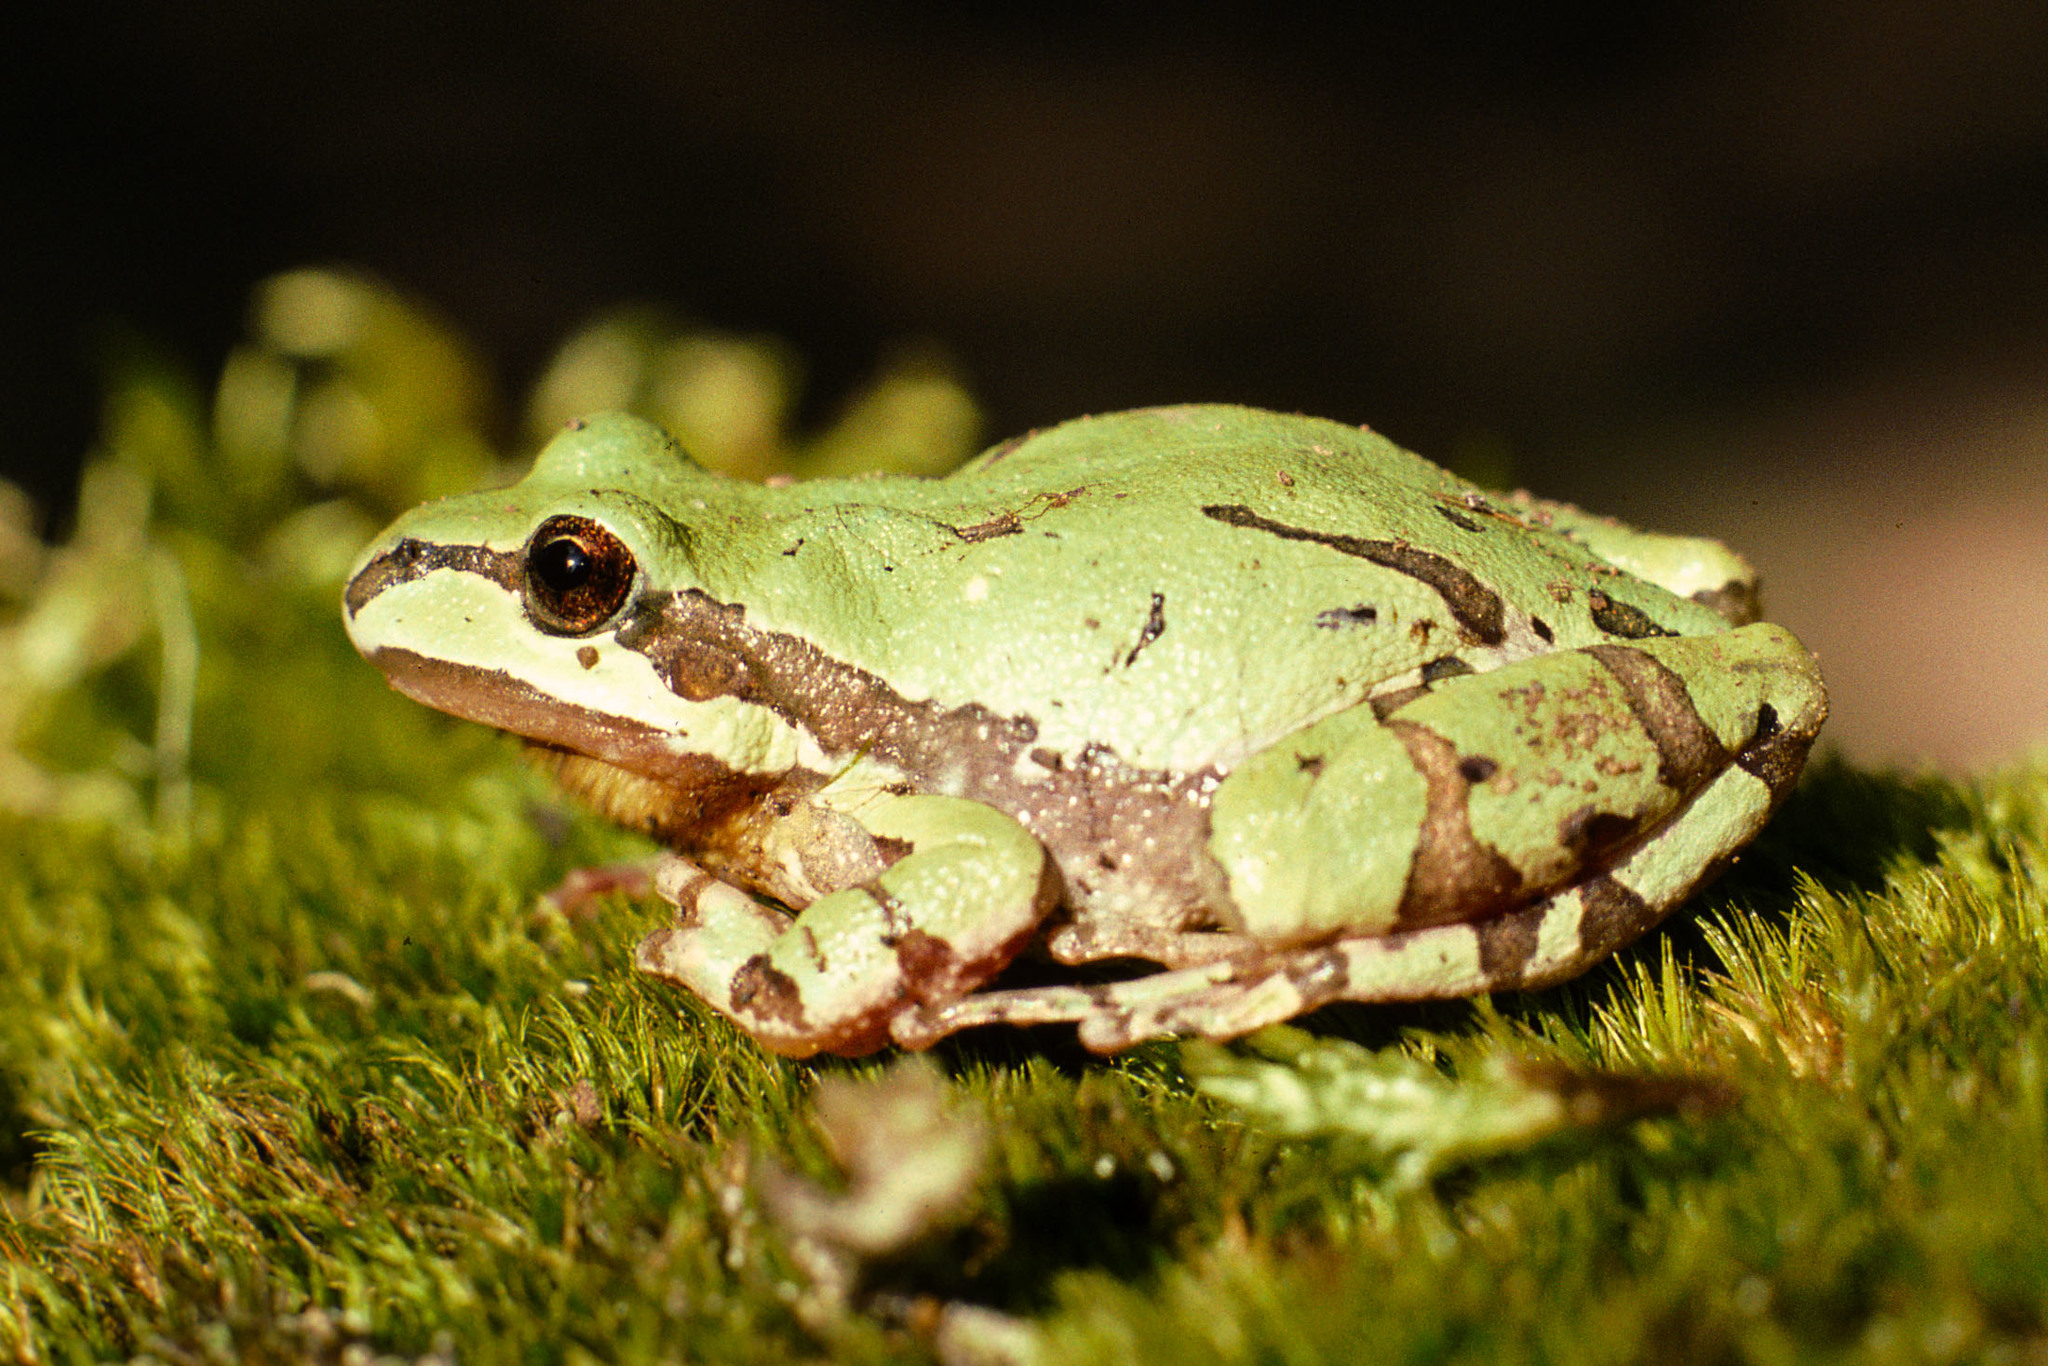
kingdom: Animalia
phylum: Chordata
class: Amphibia
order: Anura
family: Hylidae
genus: Dryophytes
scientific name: Dryophytes wrightorum
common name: Arizona treefrog
